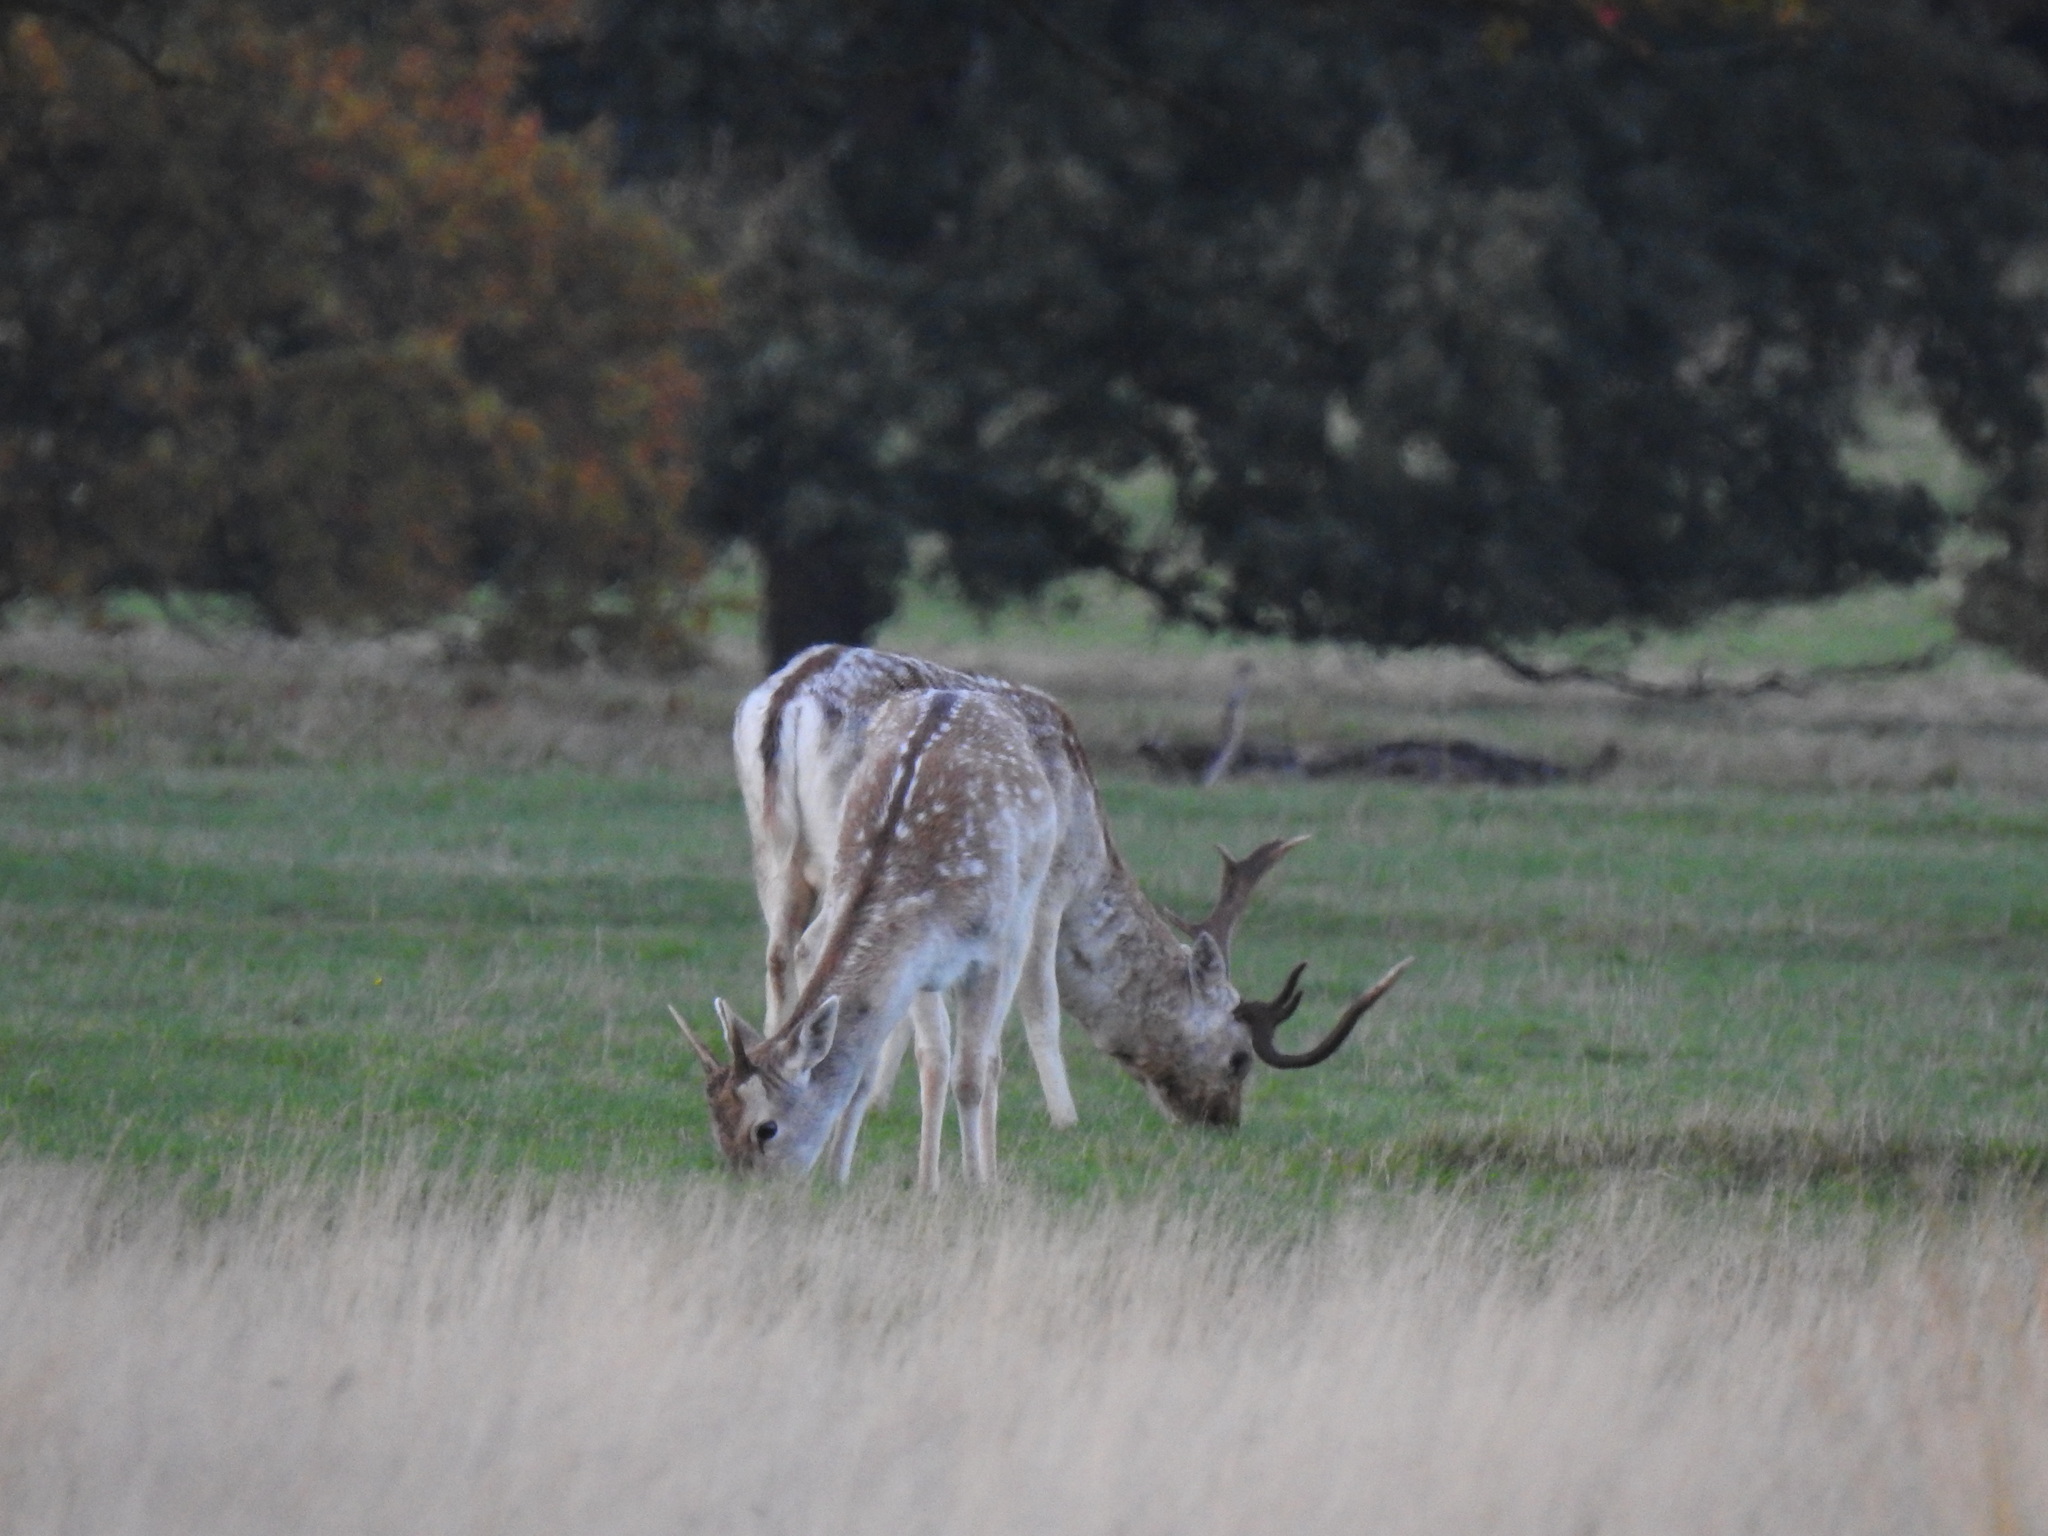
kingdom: Animalia
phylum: Chordata
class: Mammalia
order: Artiodactyla
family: Cervidae
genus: Dama
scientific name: Dama dama
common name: Fallow deer
